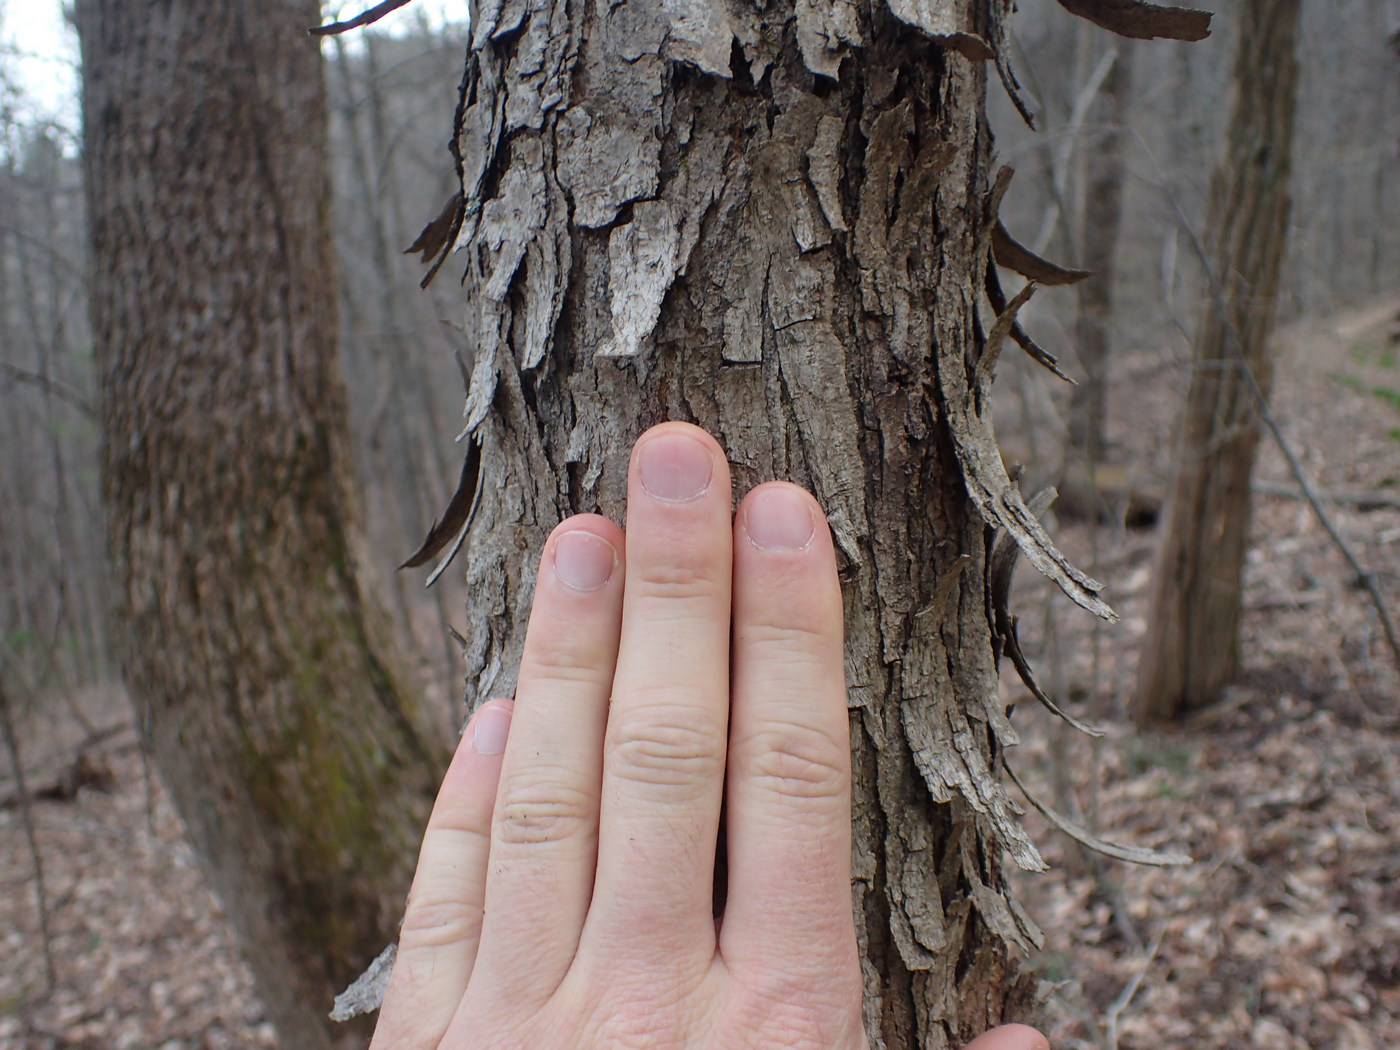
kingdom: Plantae
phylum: Tracheophyta
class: Magnoliopsida
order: Fagales
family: Betulaceae
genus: Ostrya
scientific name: Ostrya virginiana
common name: Ironwood
